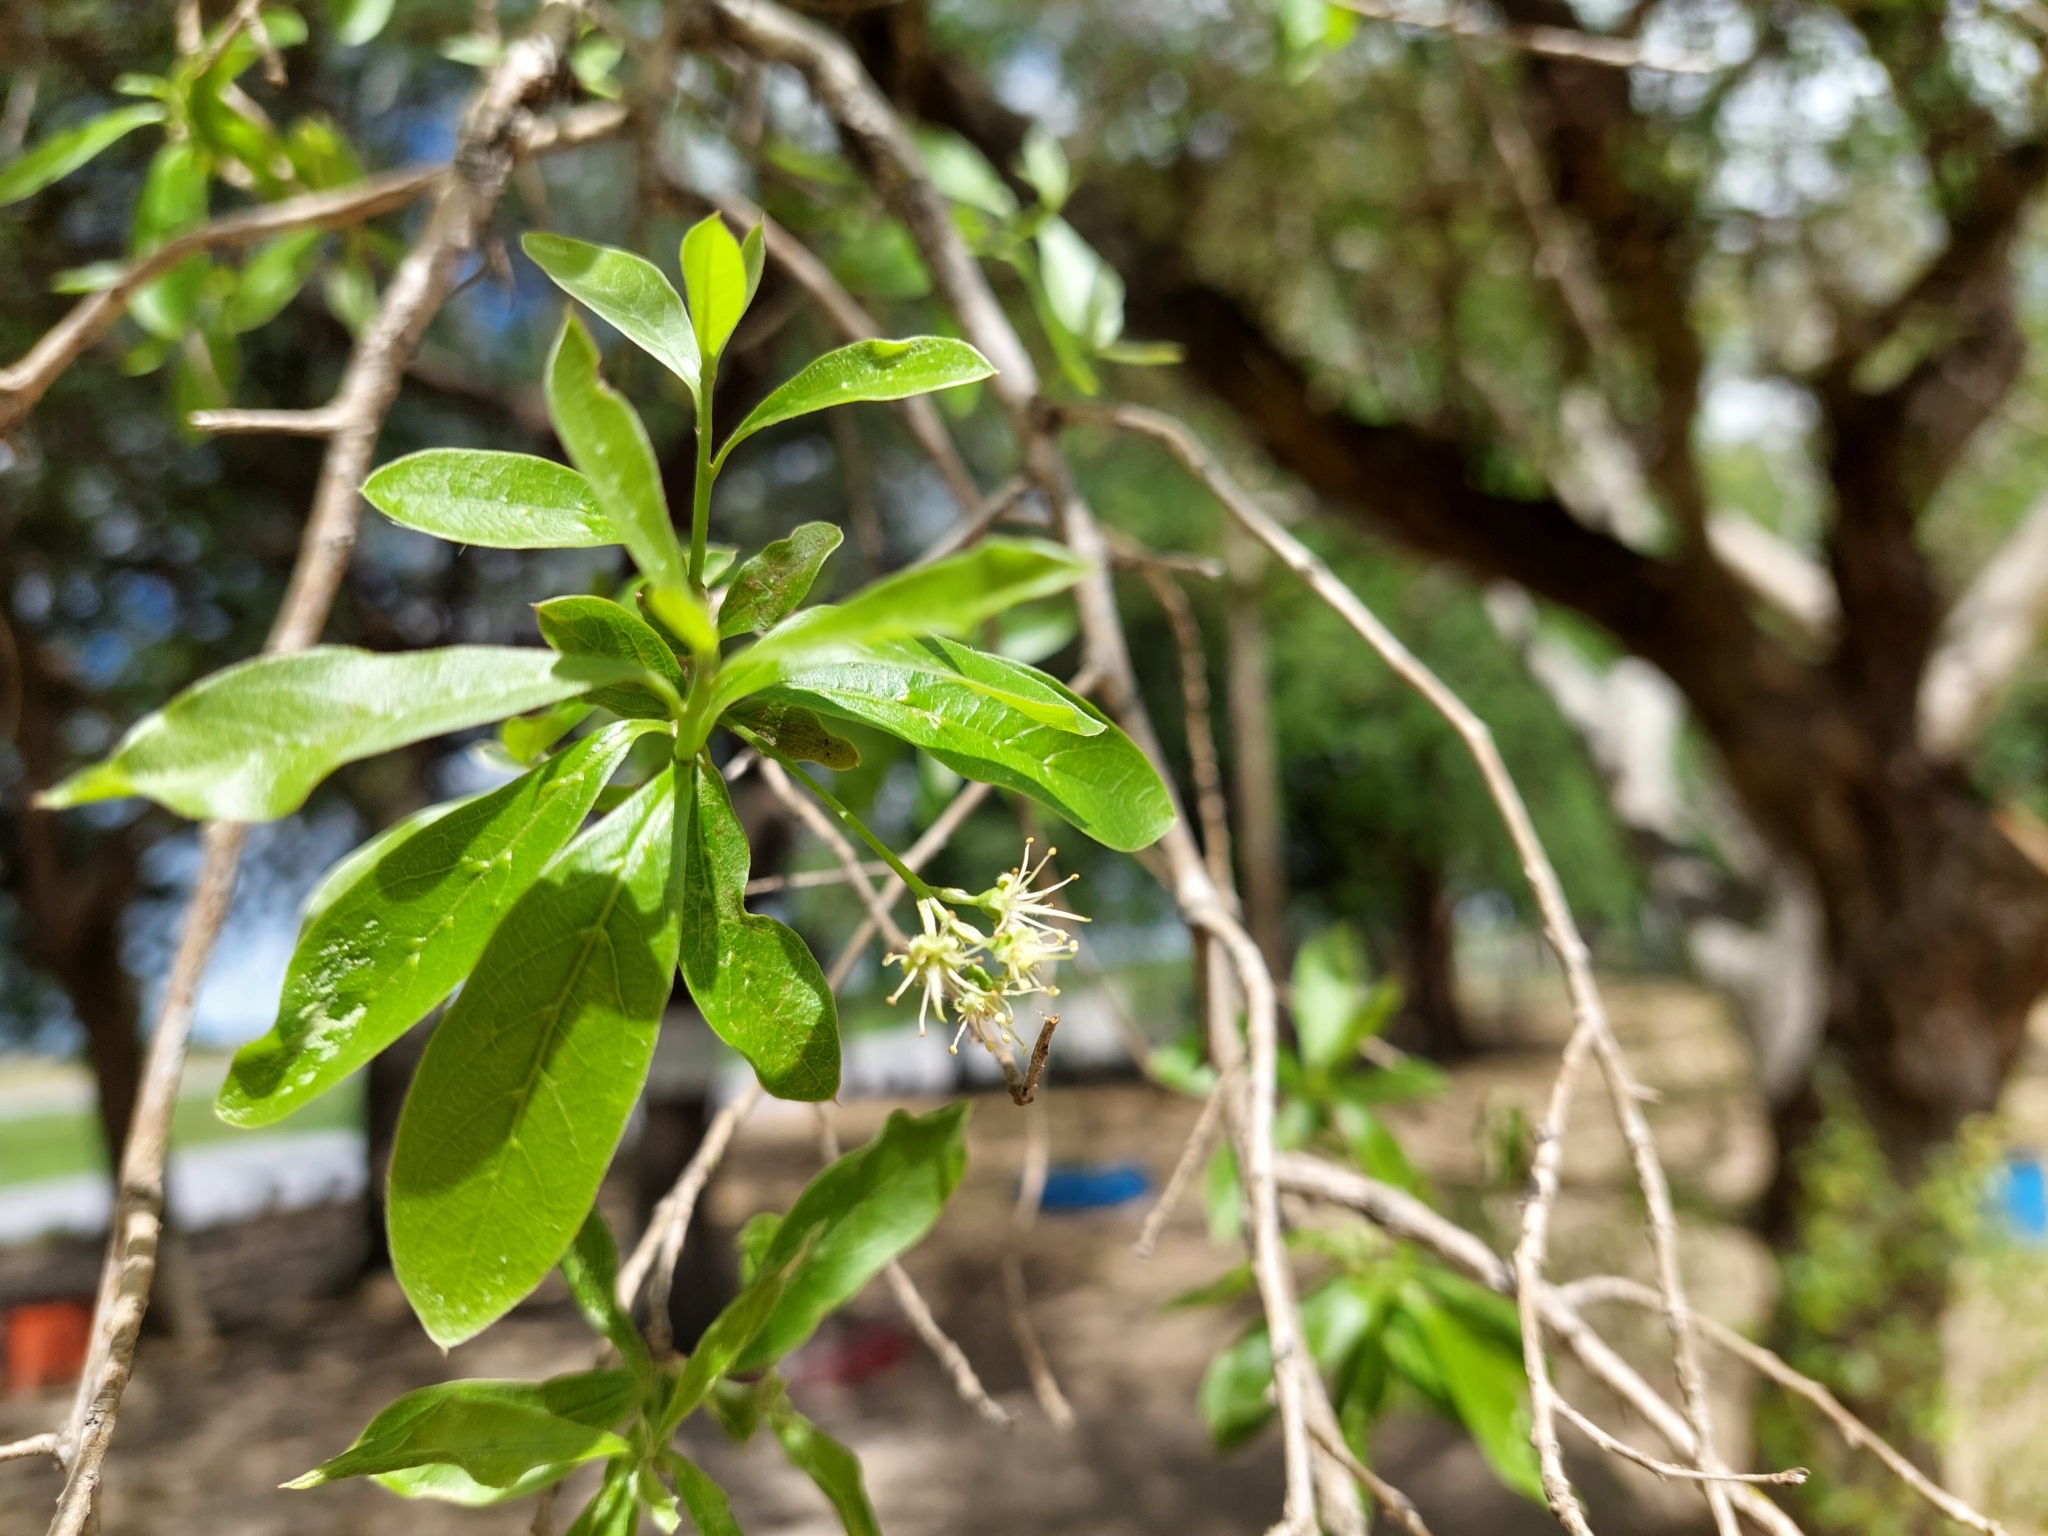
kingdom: Plantae
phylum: Tracheophyta
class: Magnoliopsida
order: Myrtales
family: Combretaceae
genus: Terminalia
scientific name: Terminalia triflora
